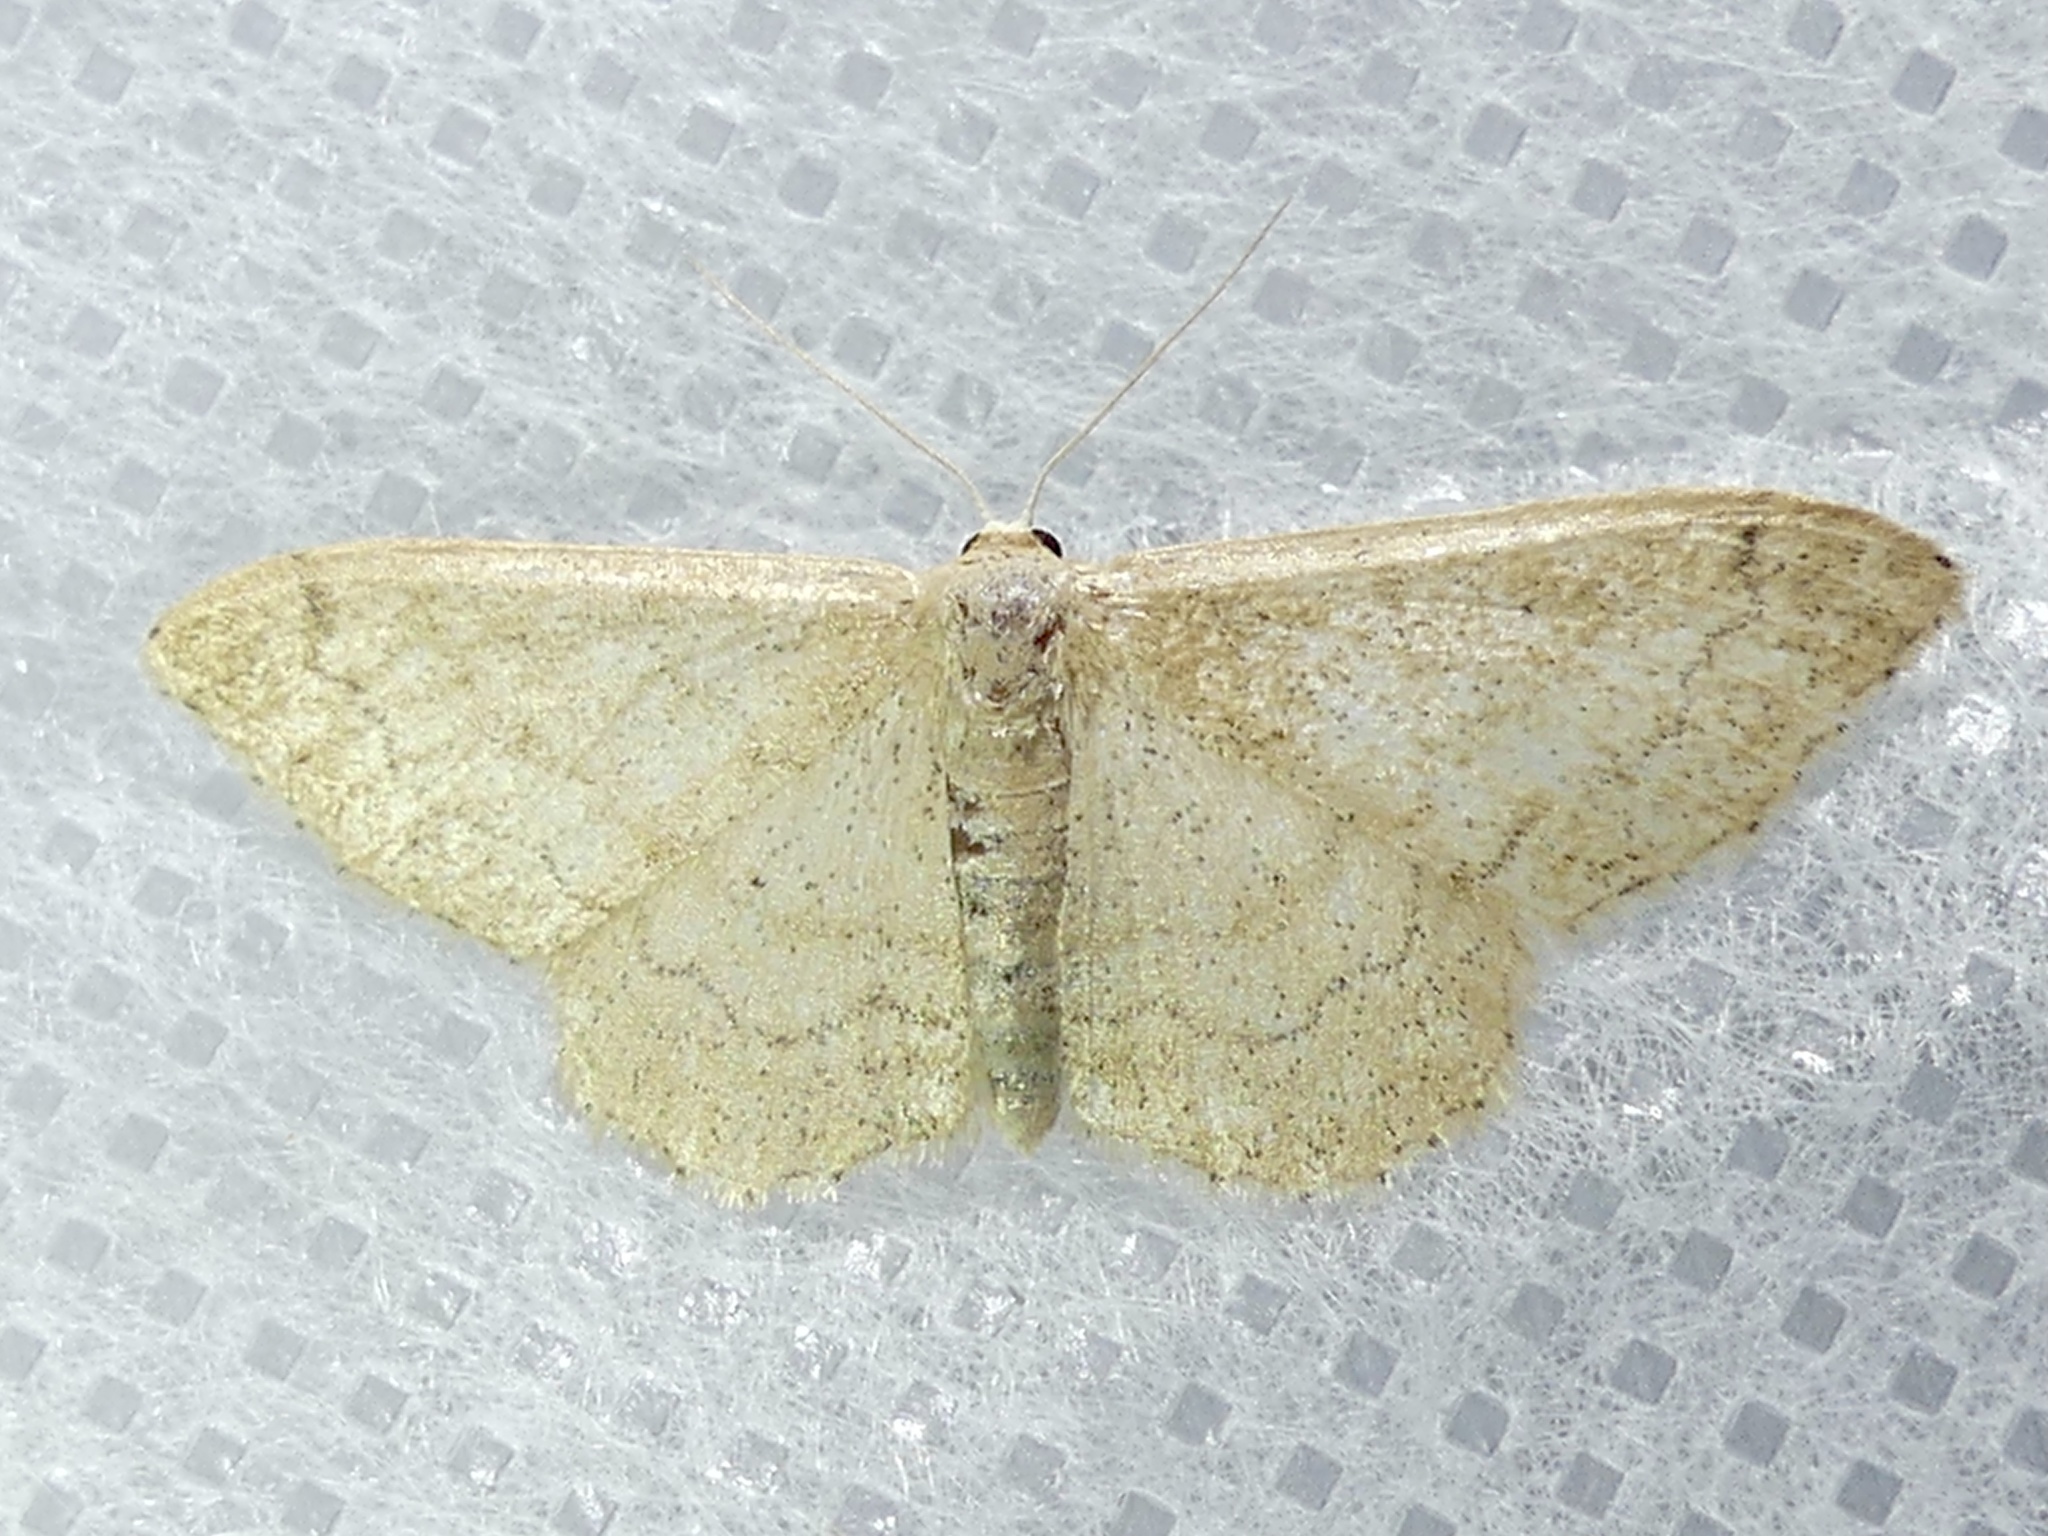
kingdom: Animalia
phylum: Arthropoda
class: Insecta
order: Lepidoptera
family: Geometridae
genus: Idaea
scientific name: Idaea maritimaria
